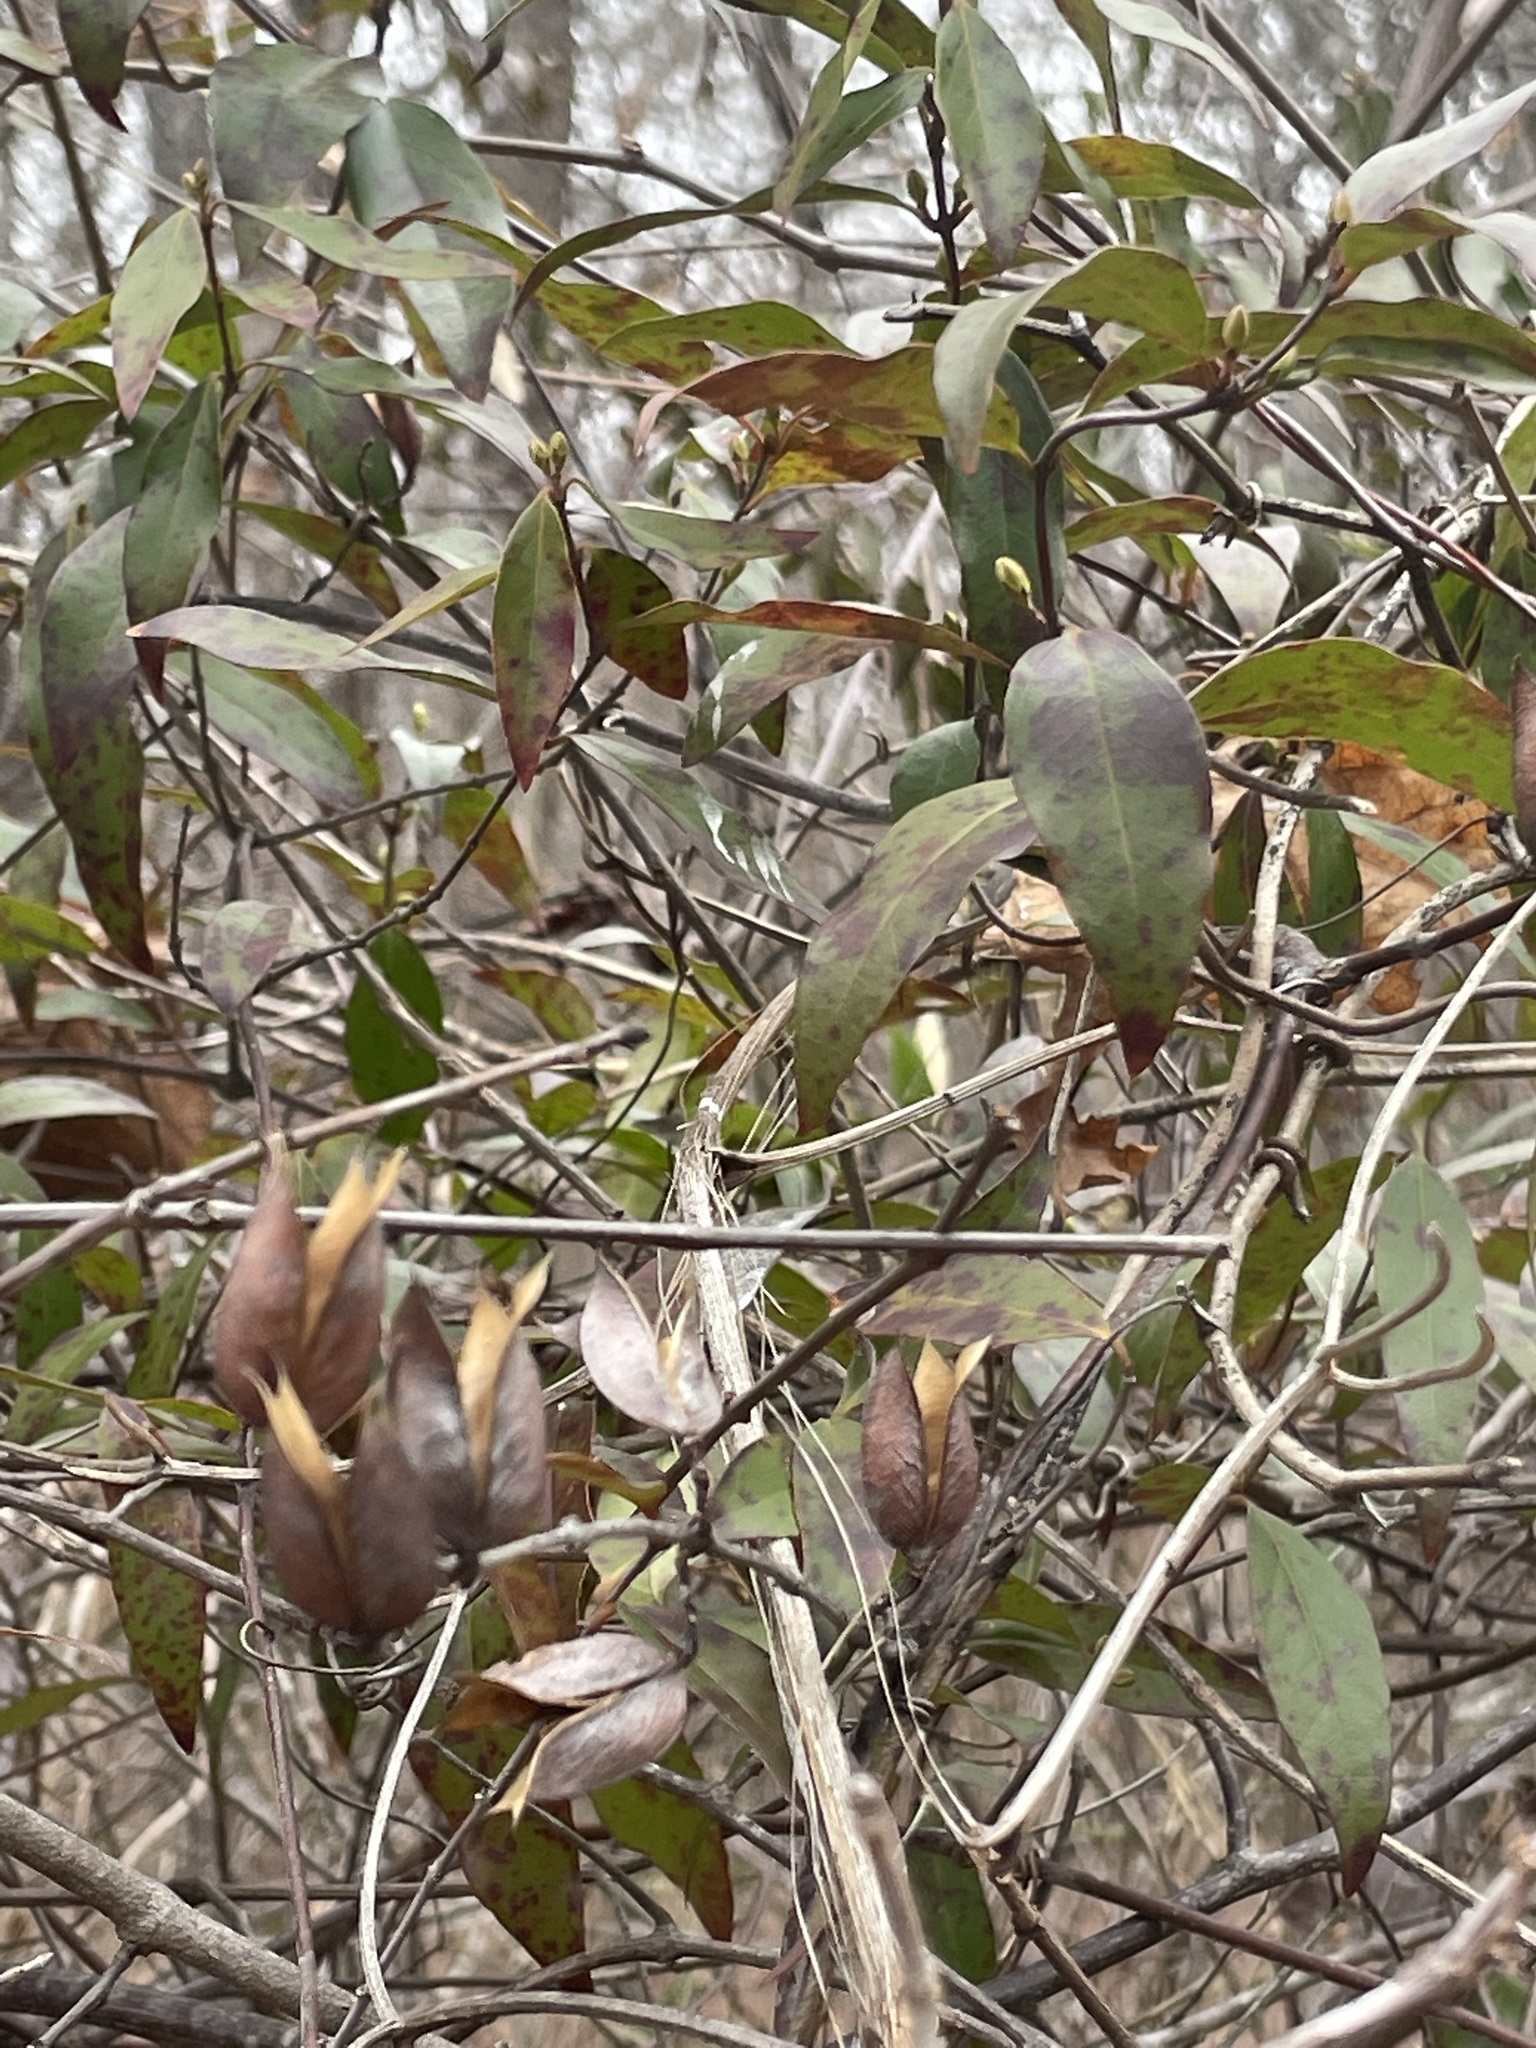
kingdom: Plantae
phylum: Tracheophyta
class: Magnoliopsida
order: Gentianales
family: Gelsemiaceae
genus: Gelsemium
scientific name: Gelsemium sempervirens
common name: Carolina-jasmine
